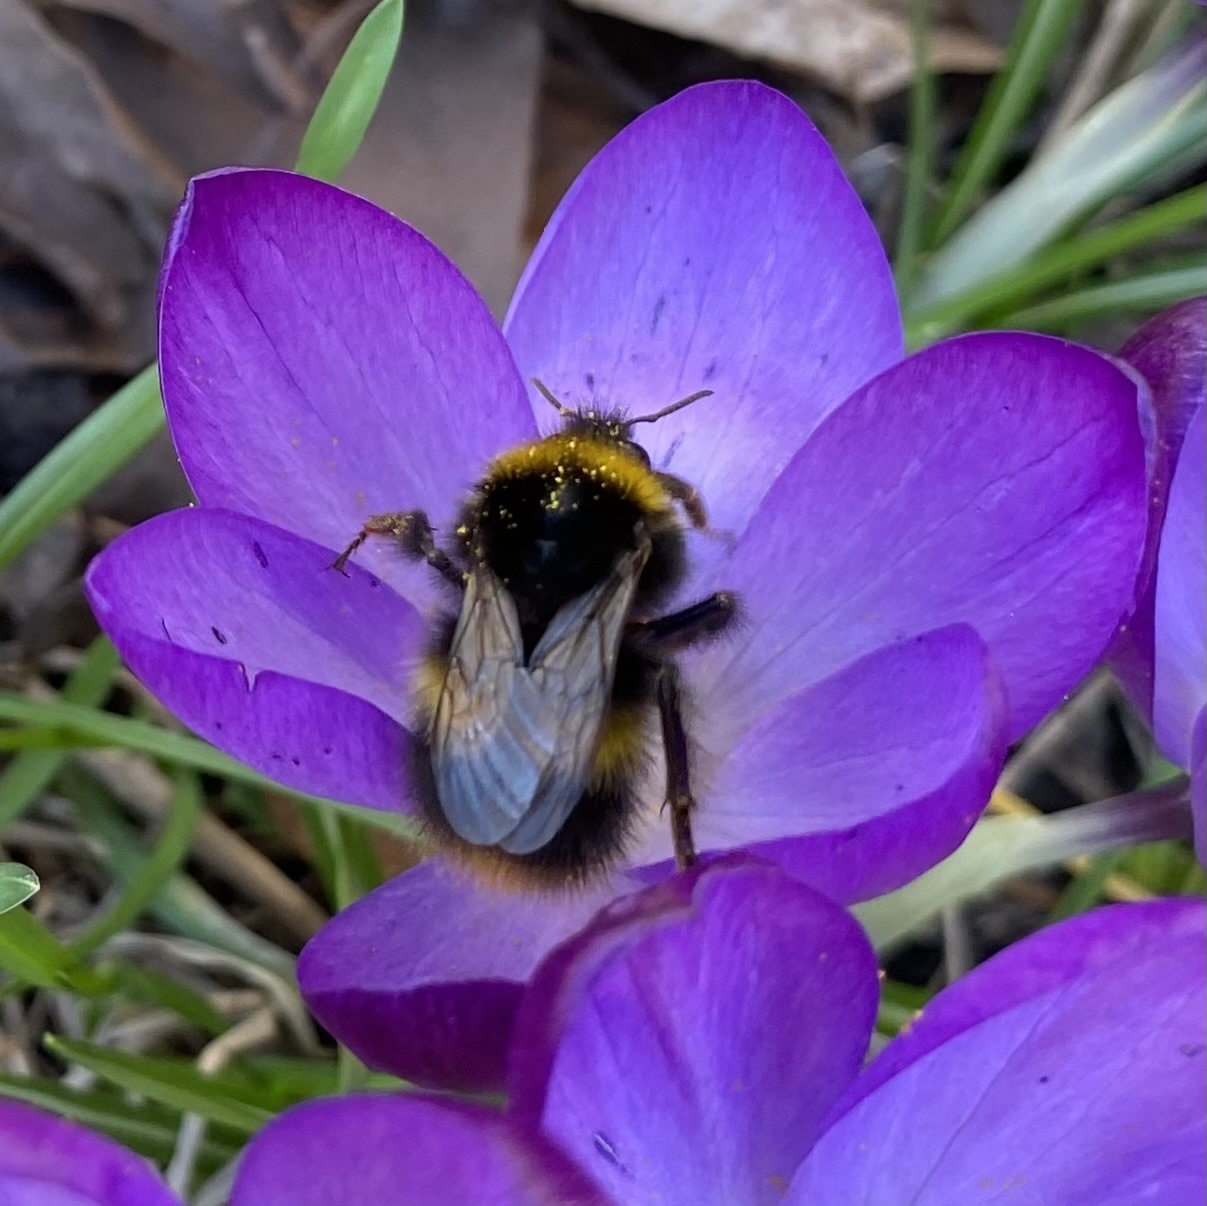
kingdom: Animalia
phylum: Arthropoda
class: Insecta
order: Hymenoptera
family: Apidae
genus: Bombus
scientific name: Bombus pratorum
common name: Early humble-bee
